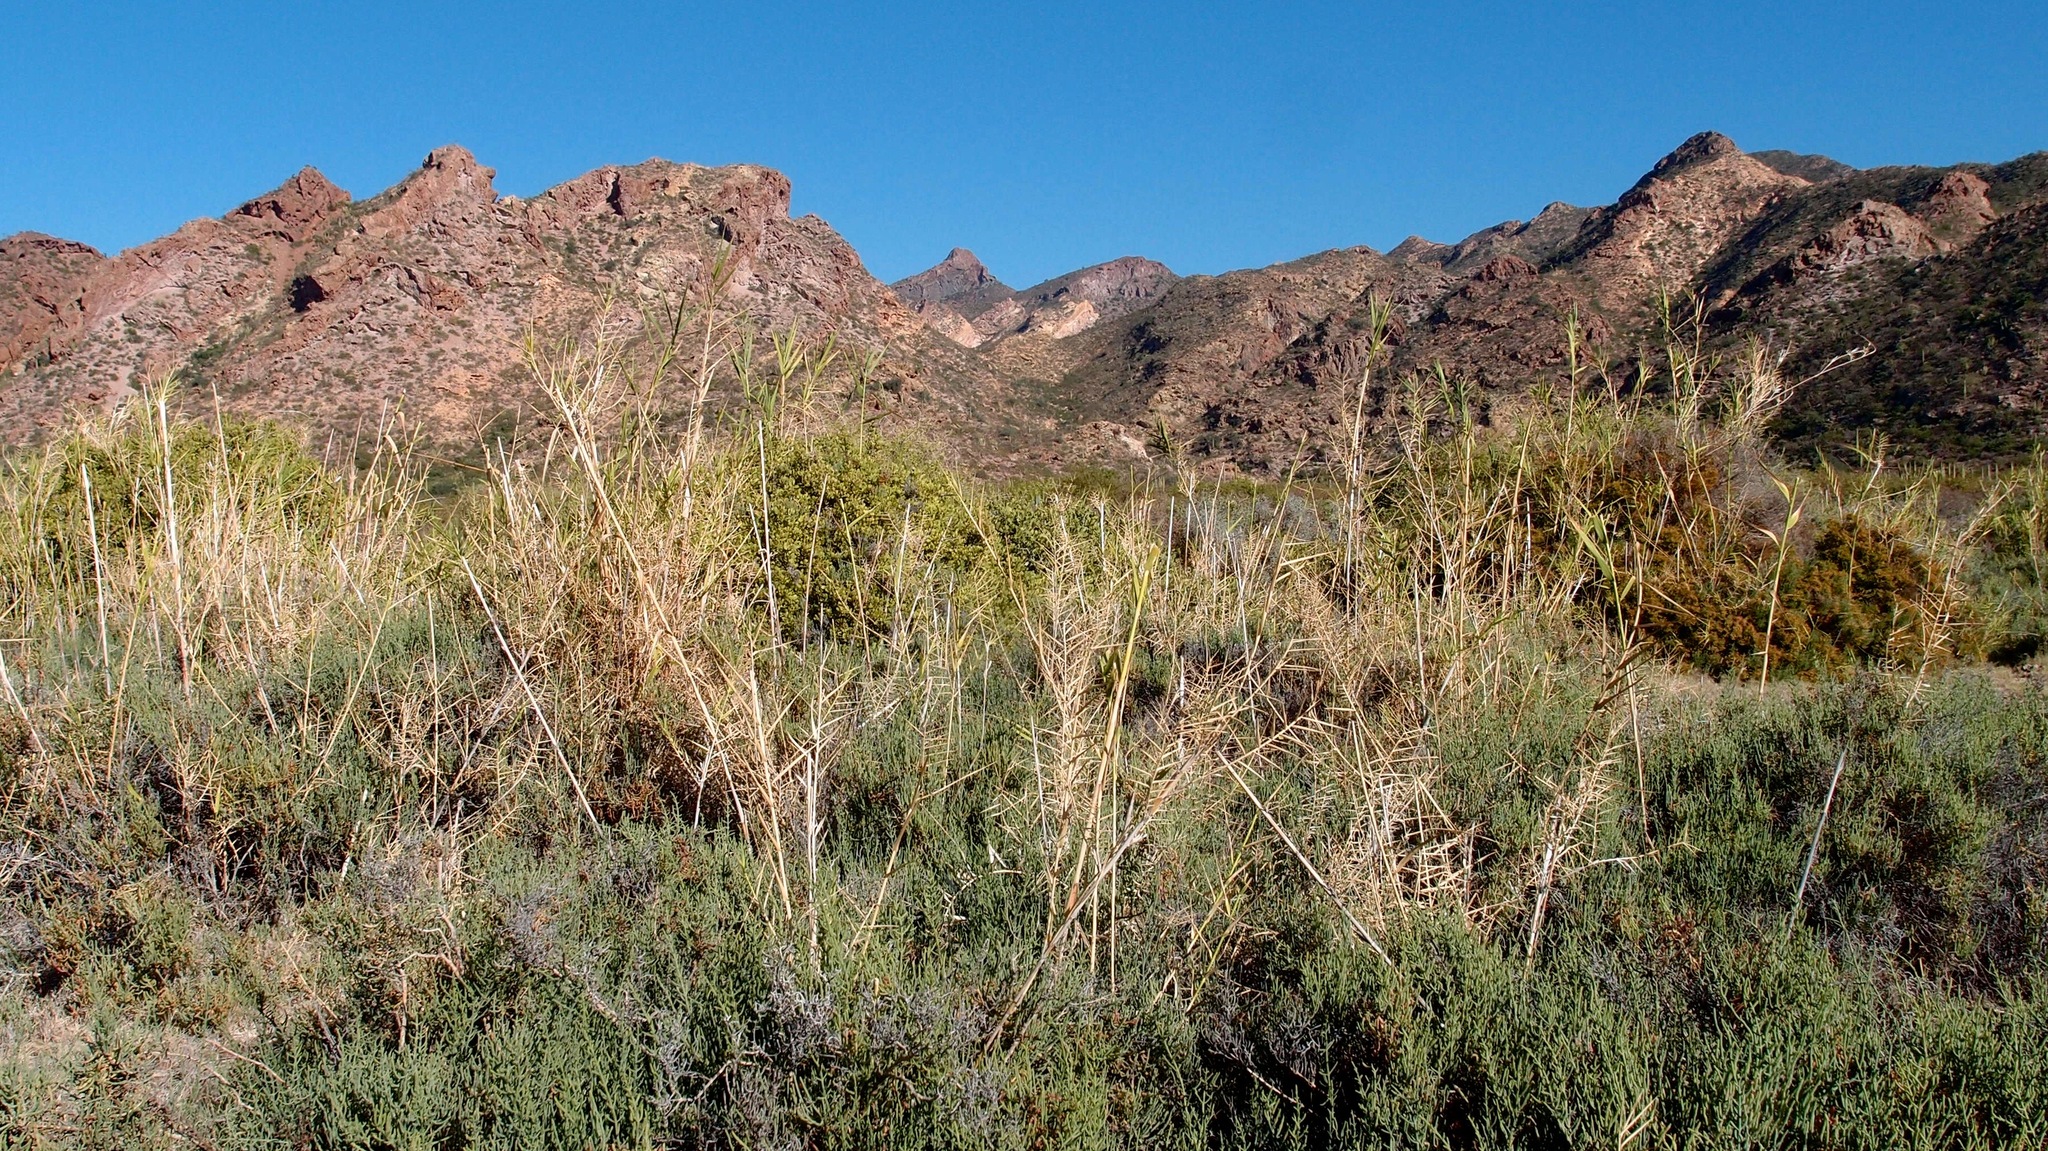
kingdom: Plantae
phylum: Tracheophyta
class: Liliopsida
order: Poales
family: Poaceae
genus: Phragmites
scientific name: Phragmites australis
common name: Common reed
